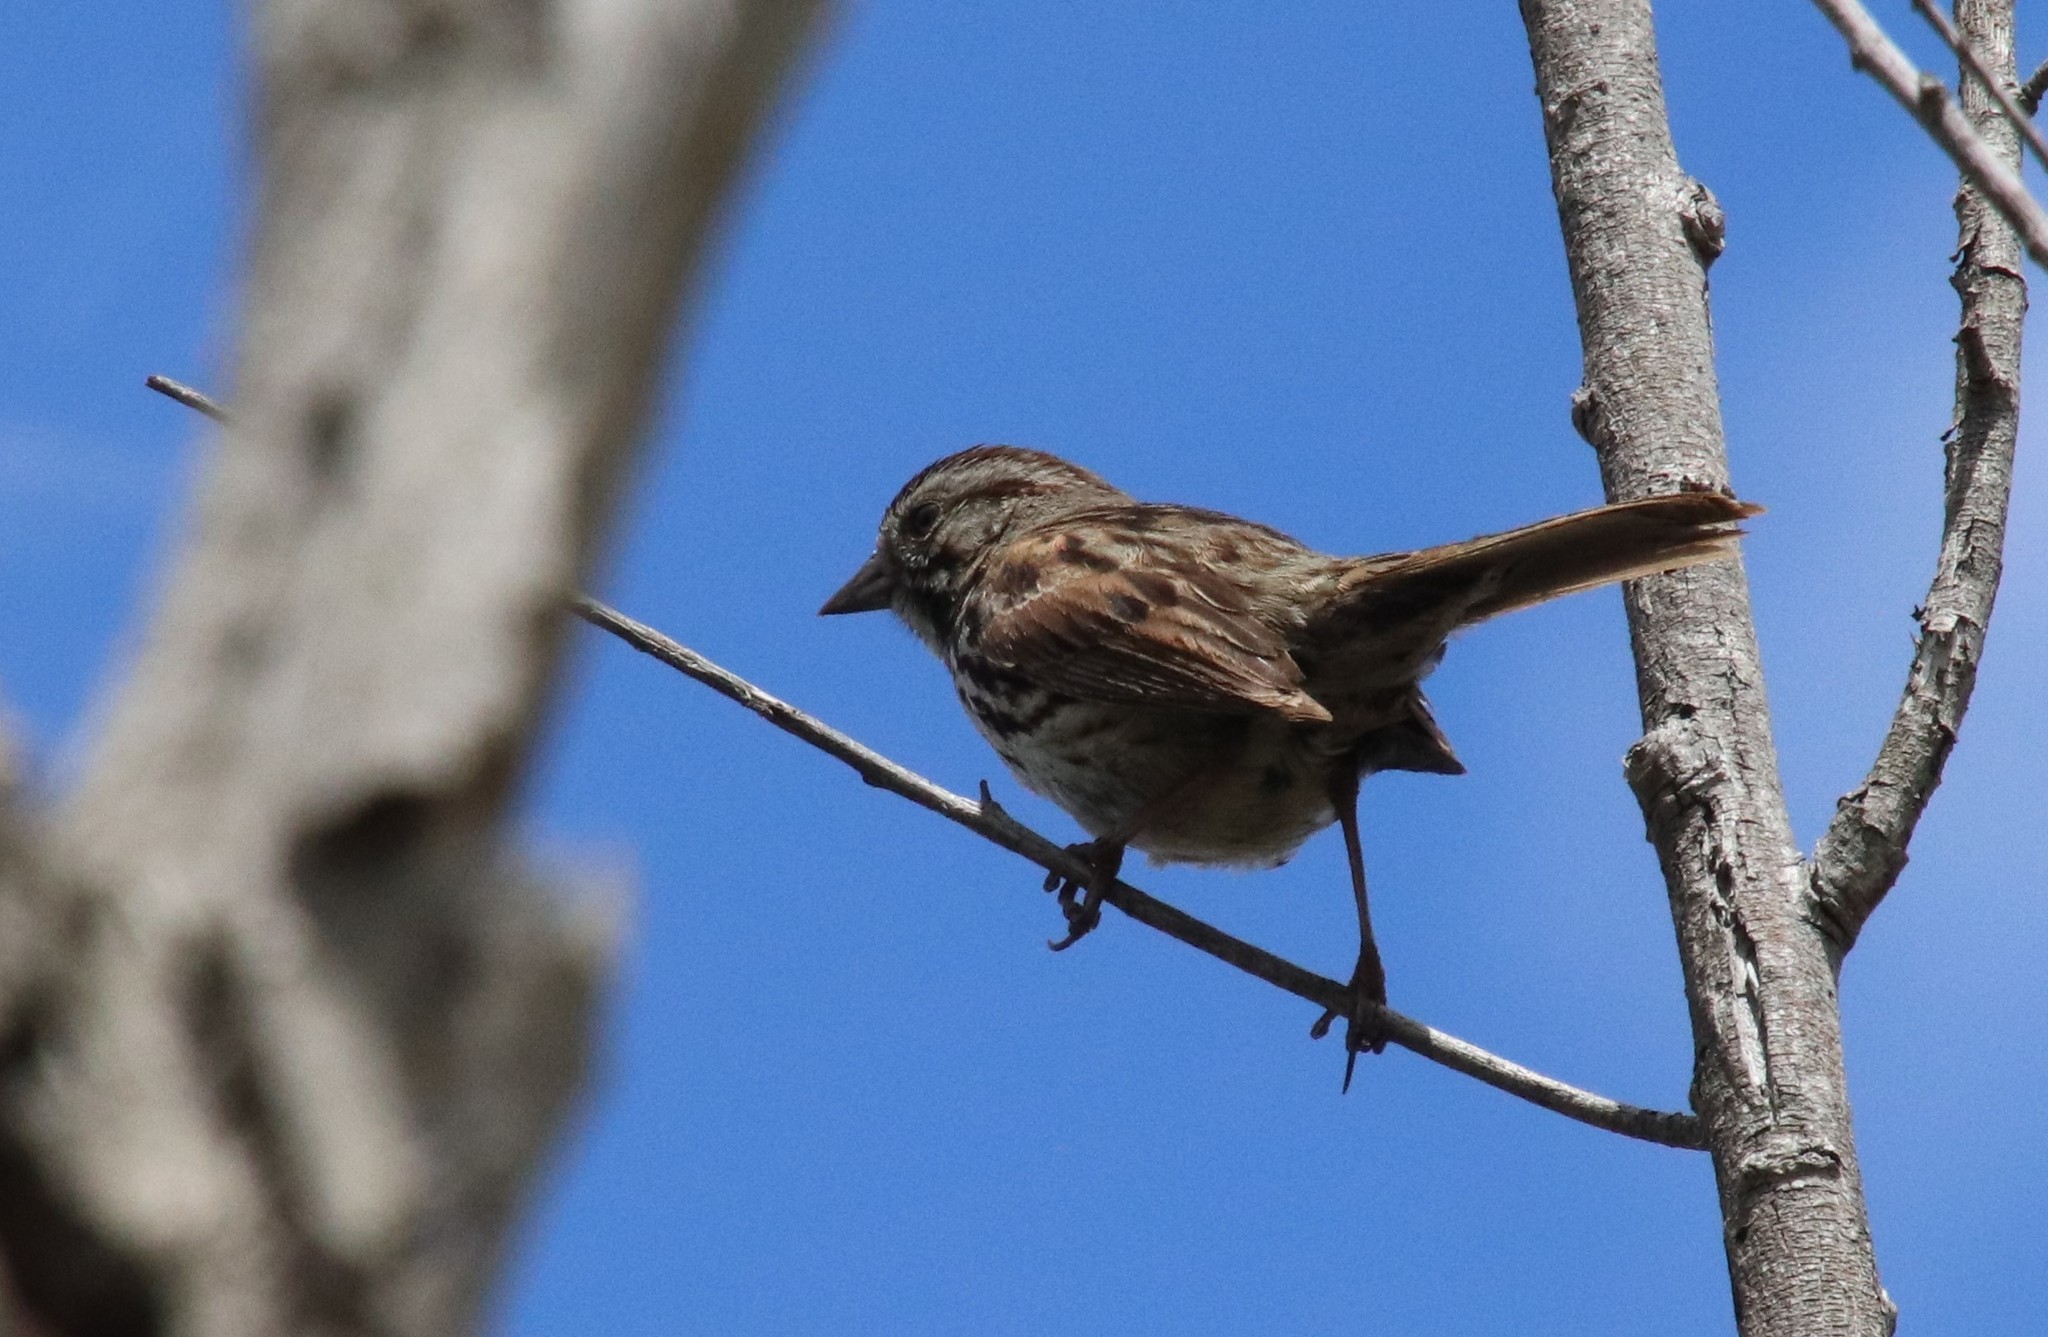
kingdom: Animalia
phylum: Chordata
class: Aves
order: Passeriformes
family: Passerellidae
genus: Melospiza
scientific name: Melospiza melodia
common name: Song sparrow
